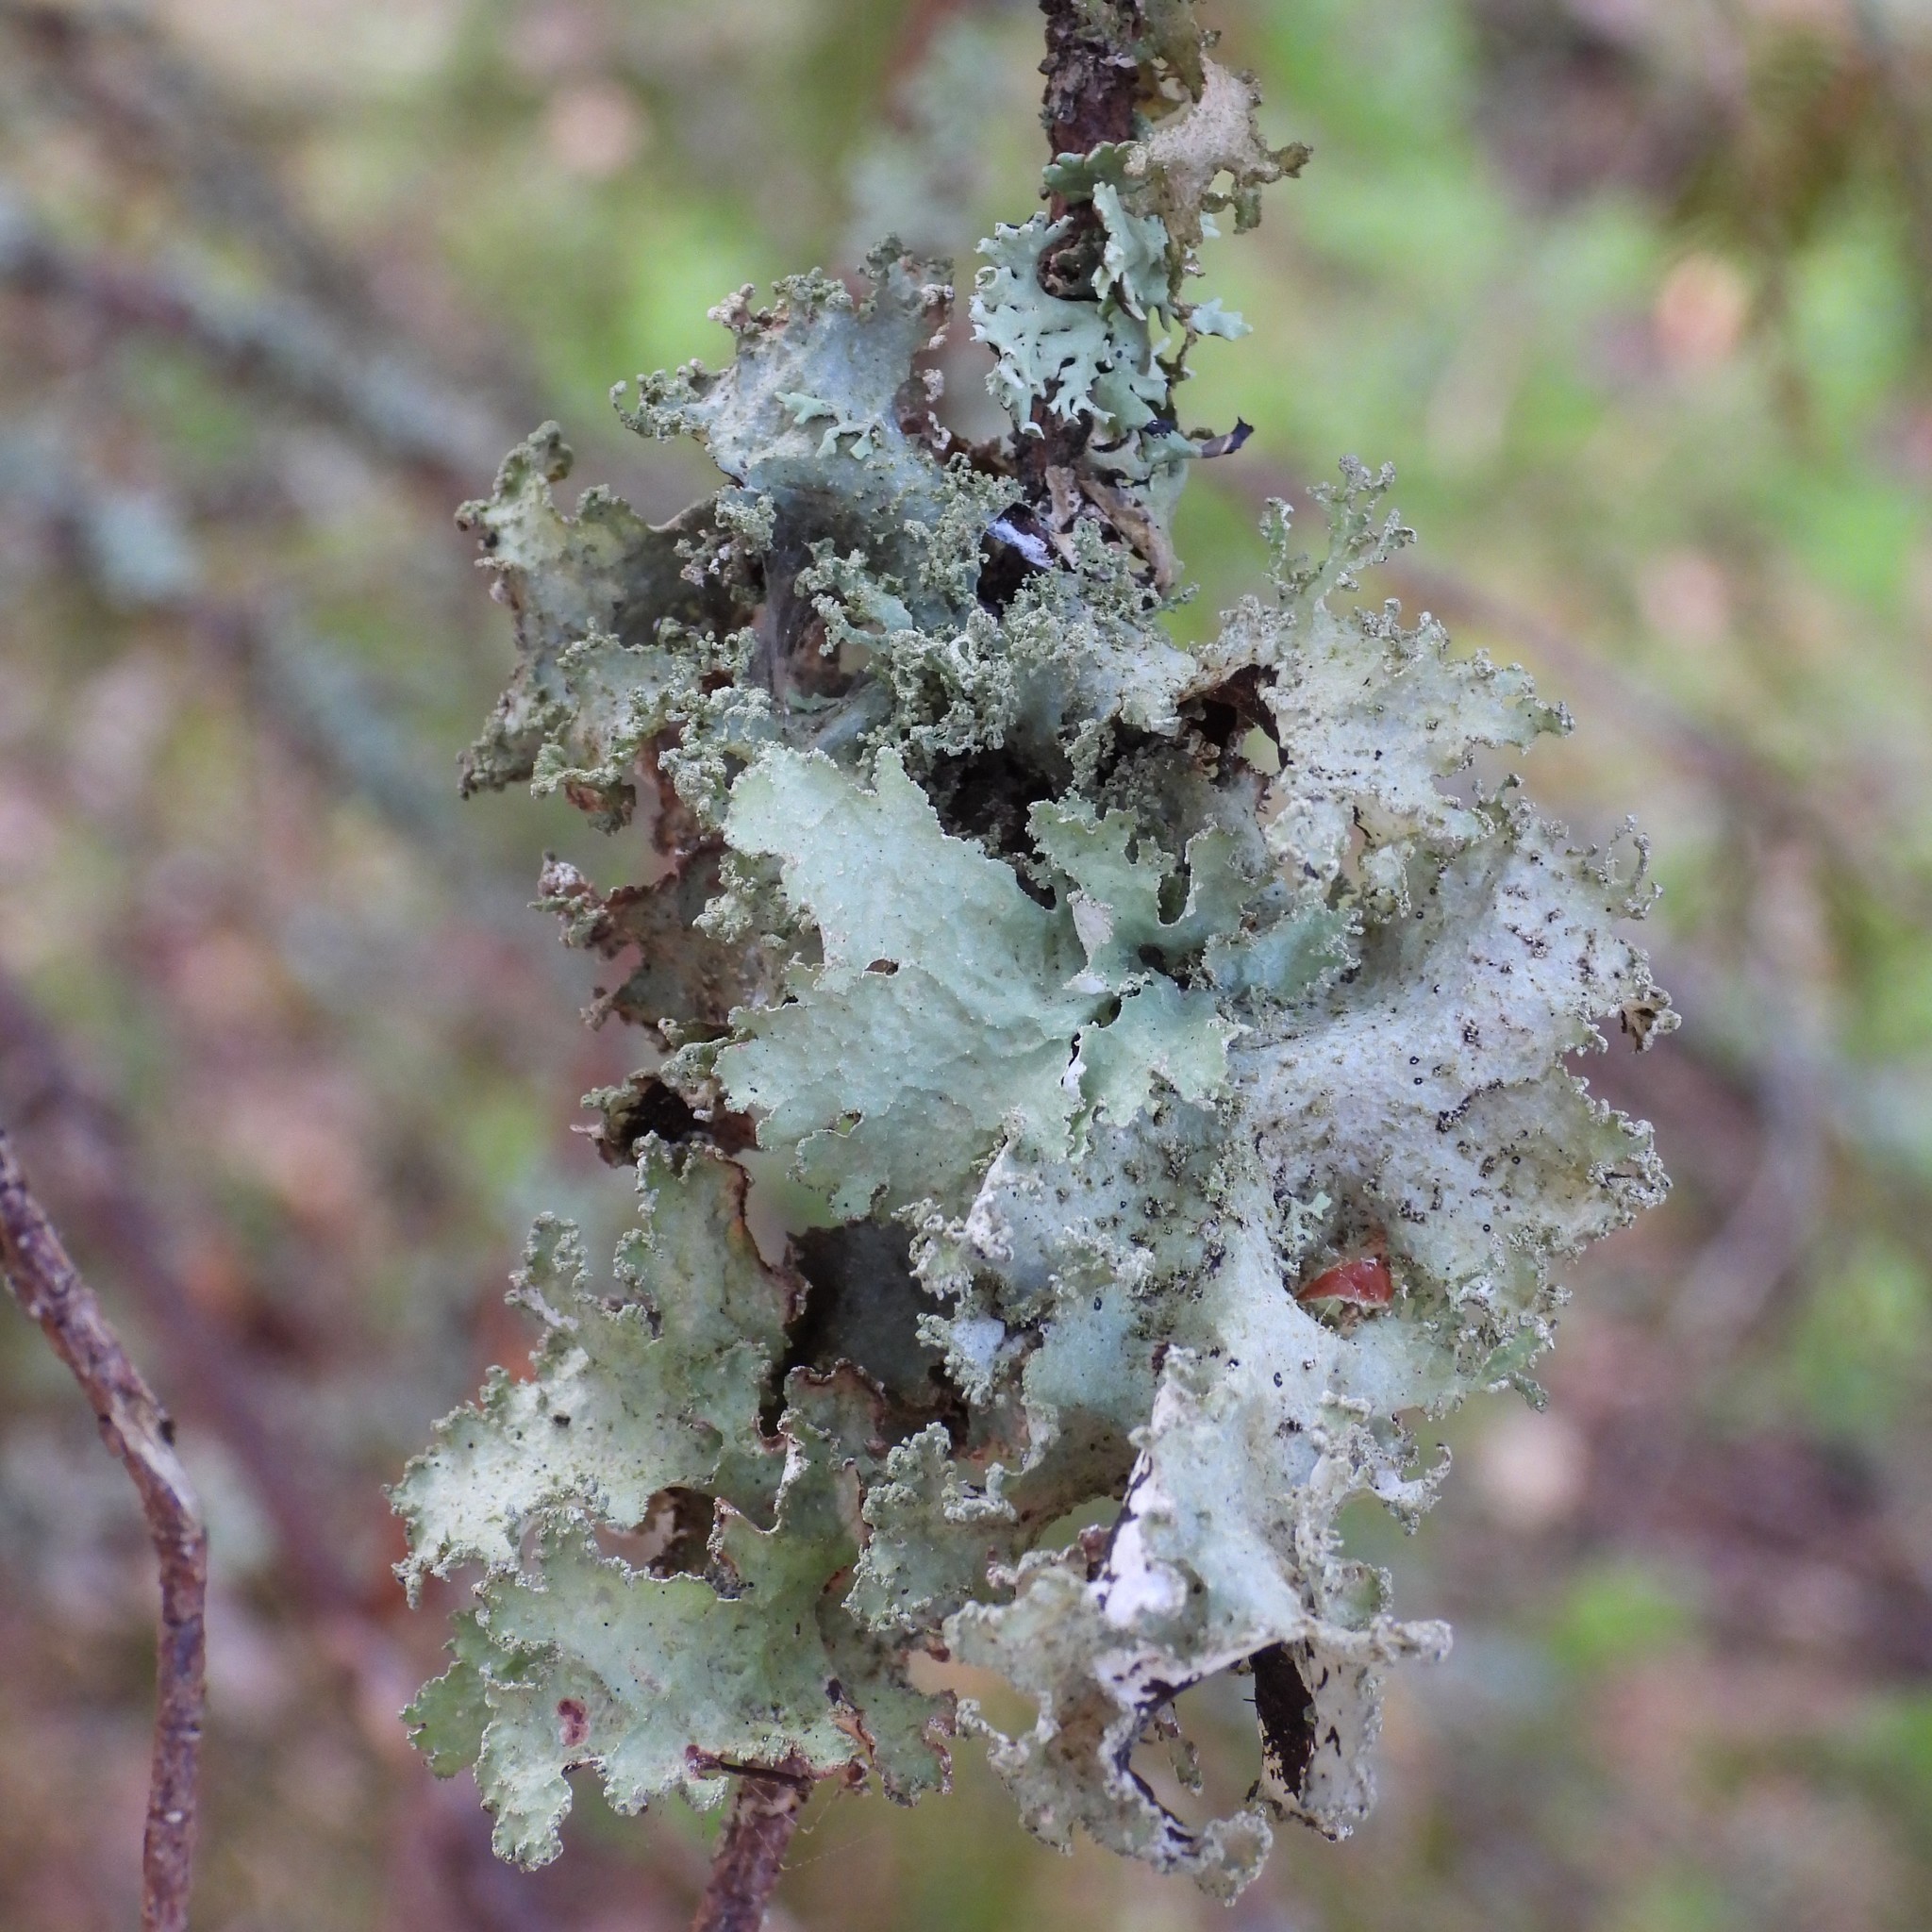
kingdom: Fungi
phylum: Ascomycota
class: Lecanoromycetes
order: Lecanorales
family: Parmeliaceae
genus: Platismatia
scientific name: Platismatia glauca
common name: Varied rag lichen
